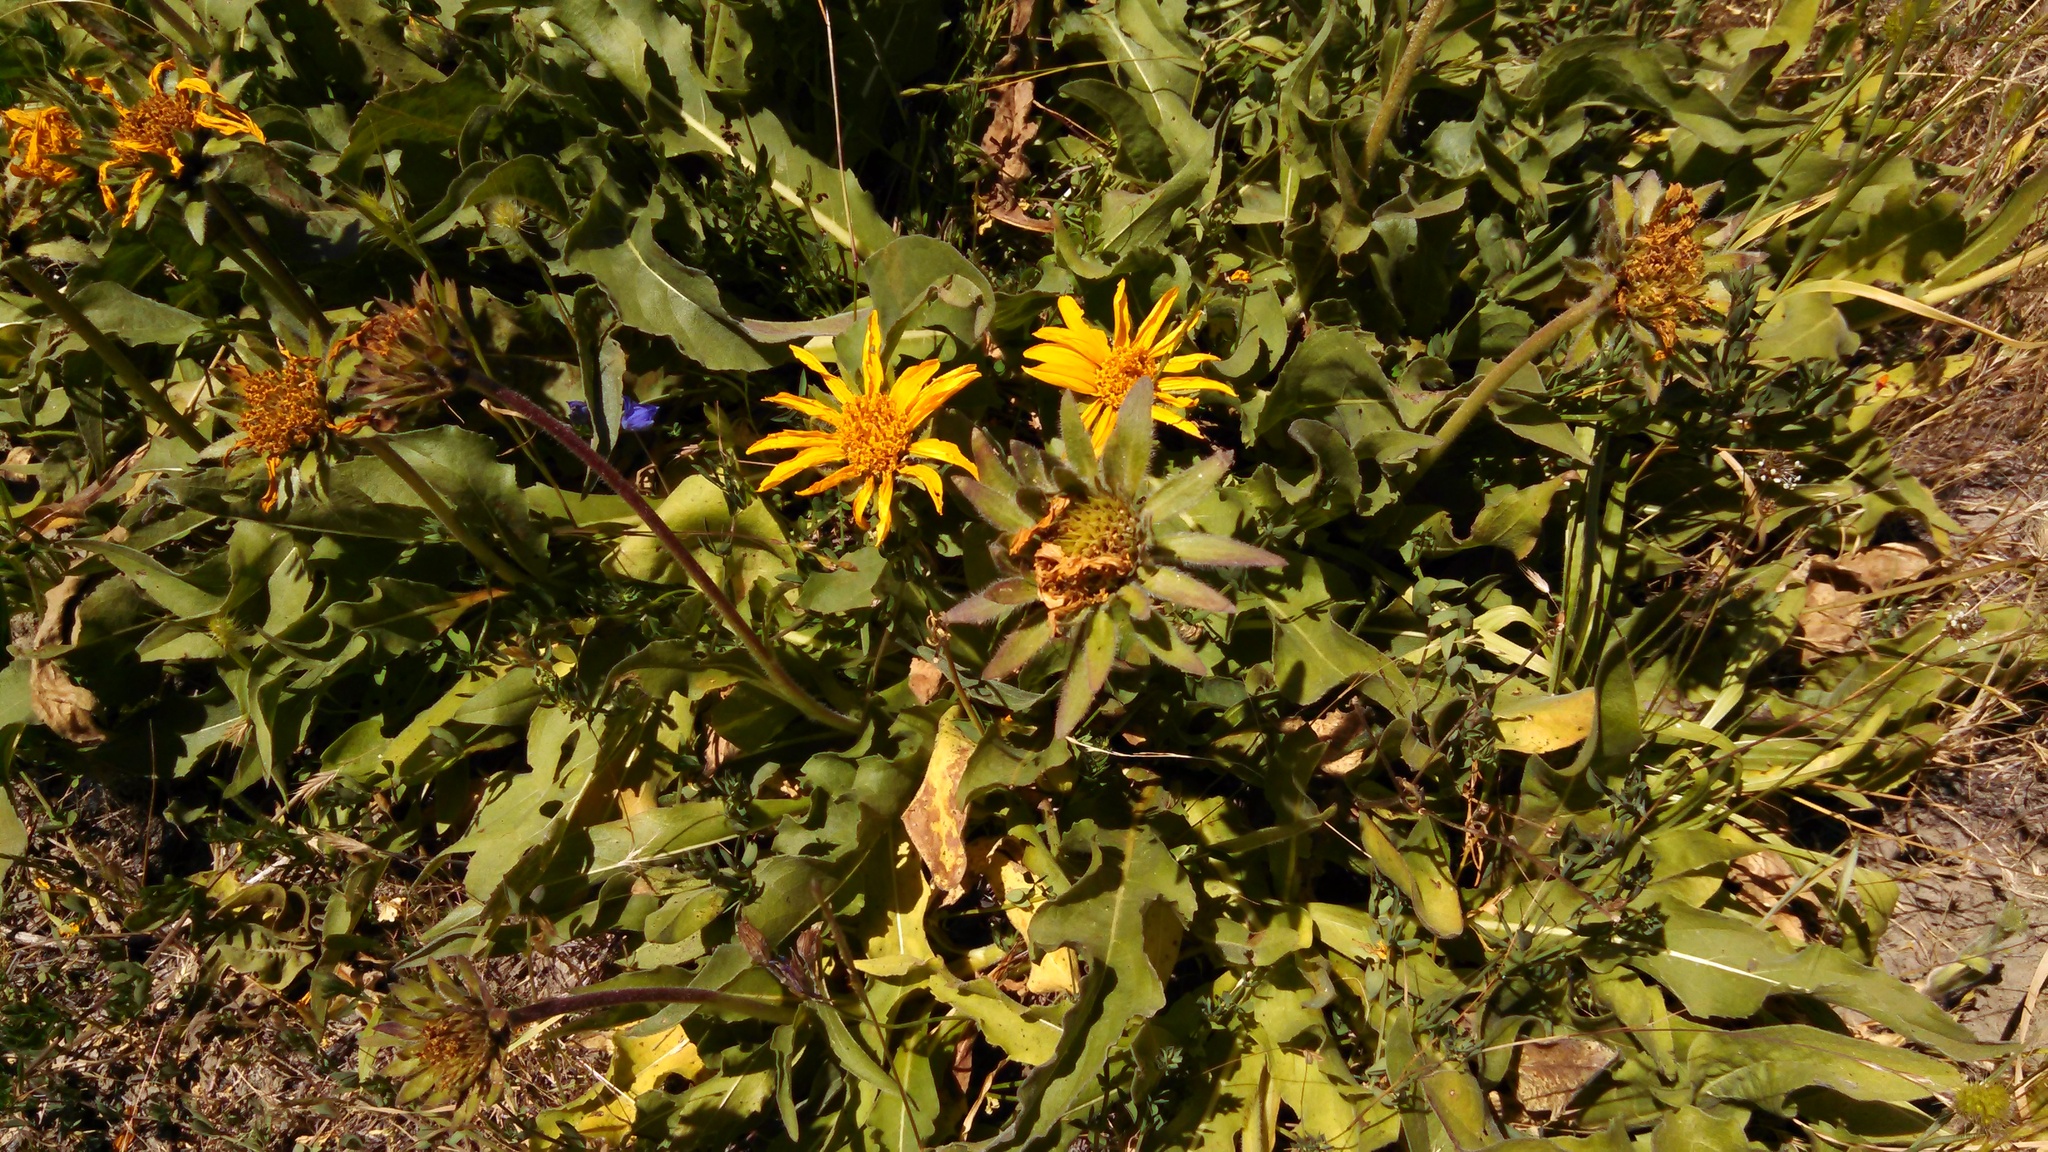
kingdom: Plantae
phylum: Tracheophyta
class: Magnoliopsida
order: Asterales
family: Asteraceae
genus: Wyethia
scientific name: Wyethia angustifolia
